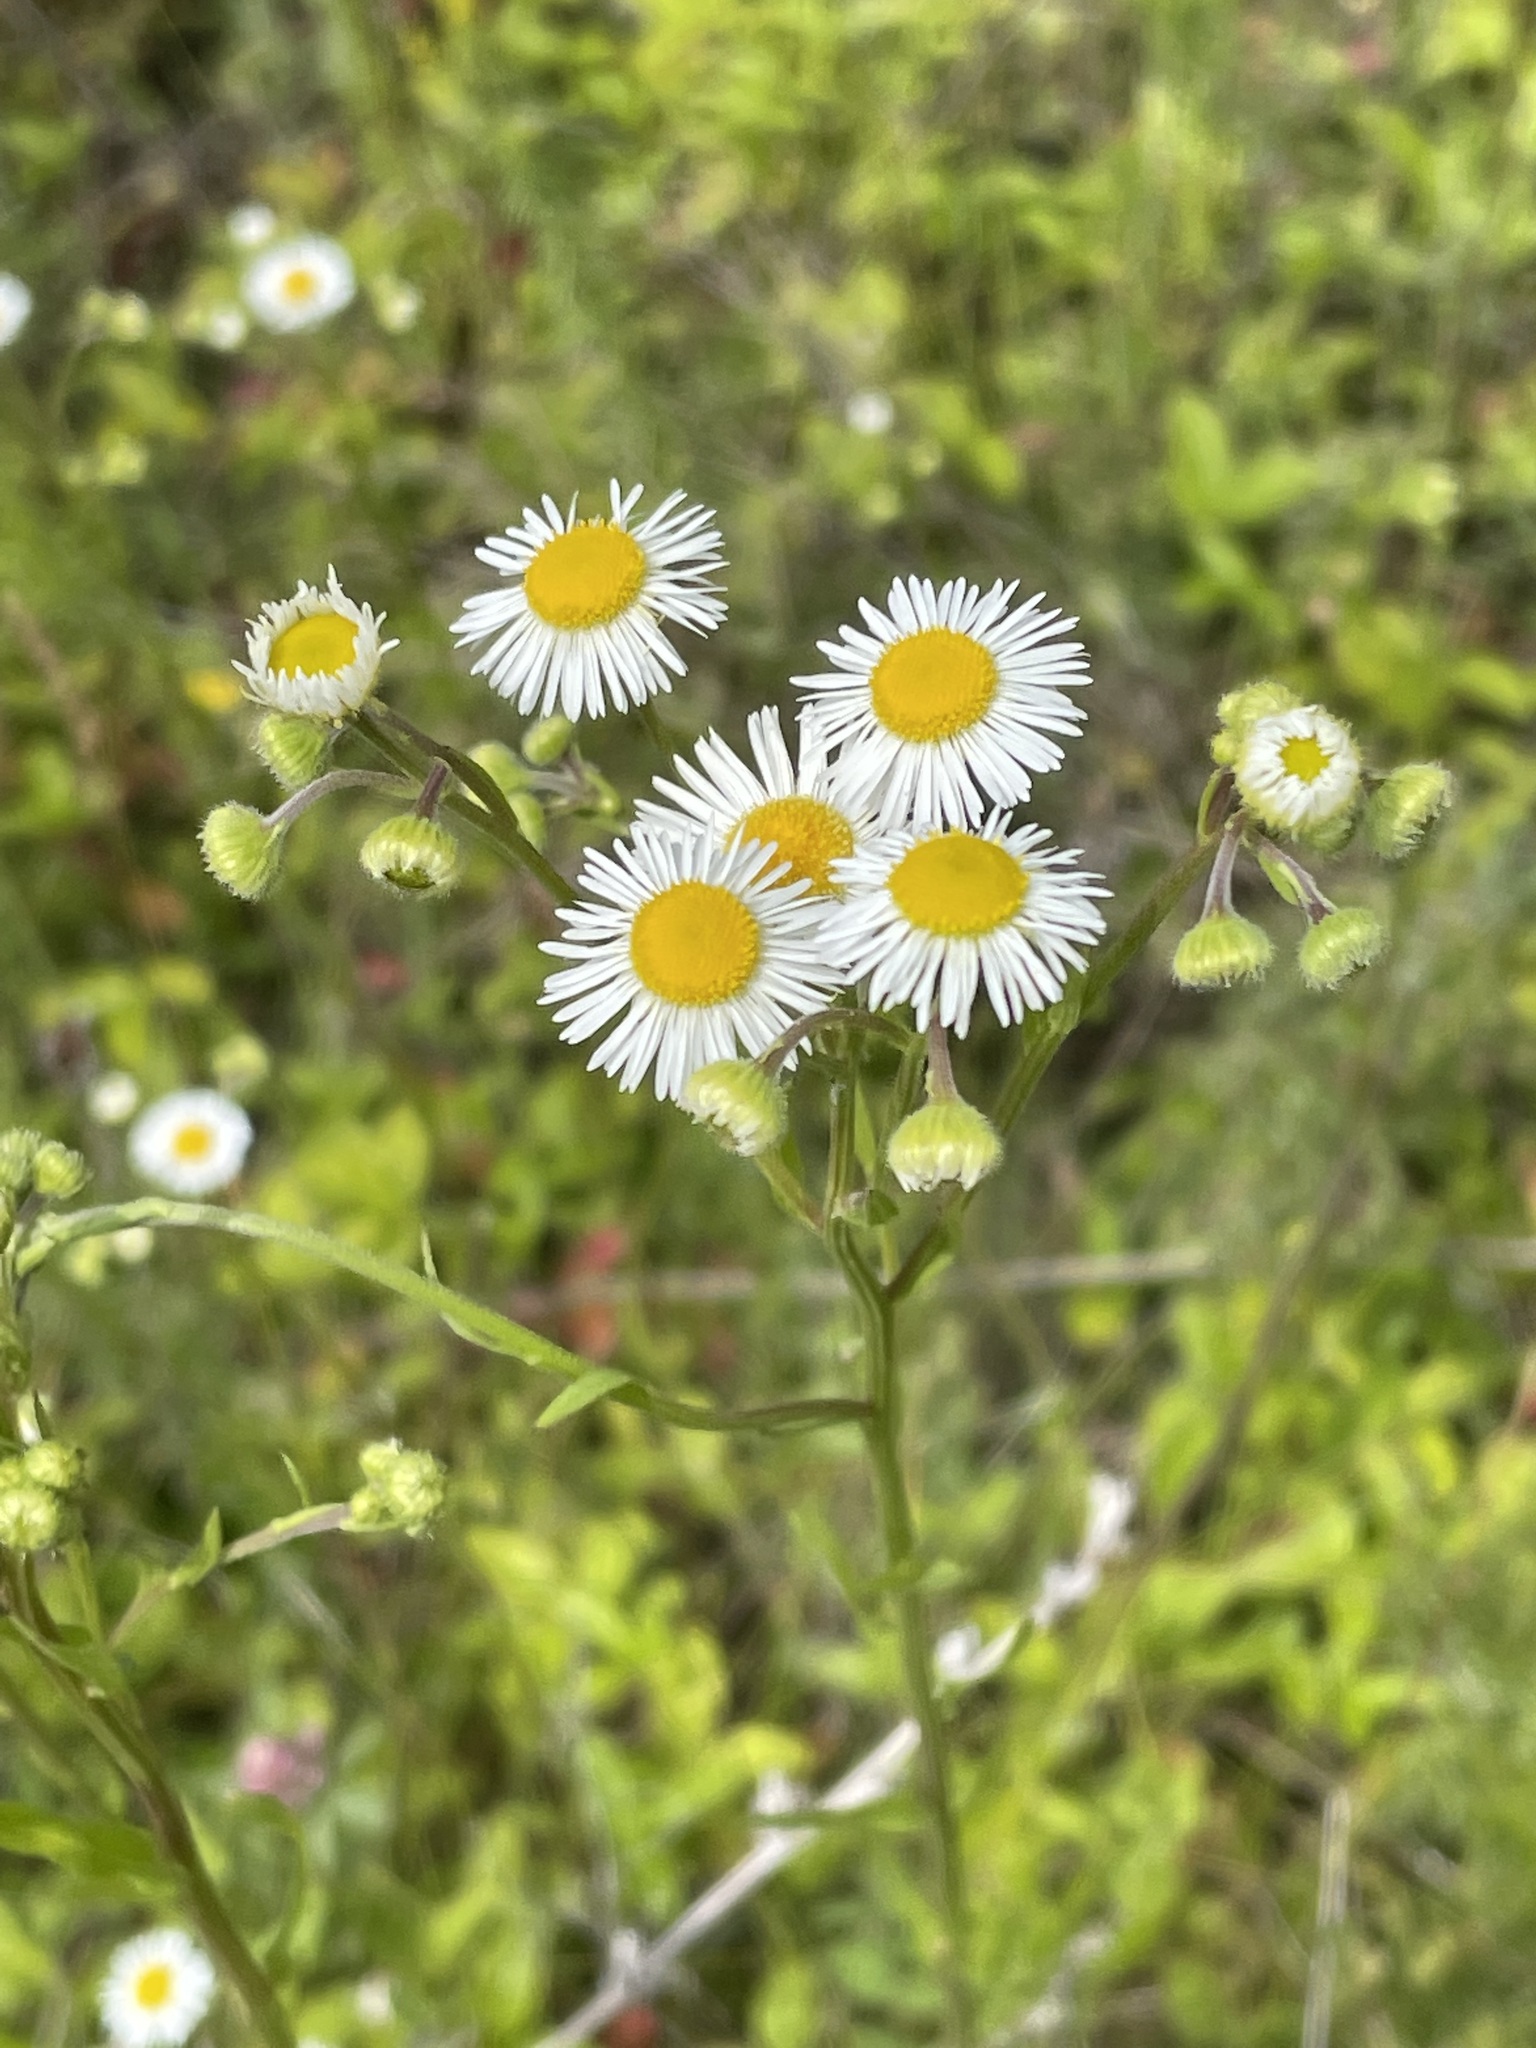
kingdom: Plantae
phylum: Tracheophyta
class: Magnoliopsida
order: Asterales
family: Asteraceae
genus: Erigeron
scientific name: Erigeron strigosus
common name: Common eastern fleabane
